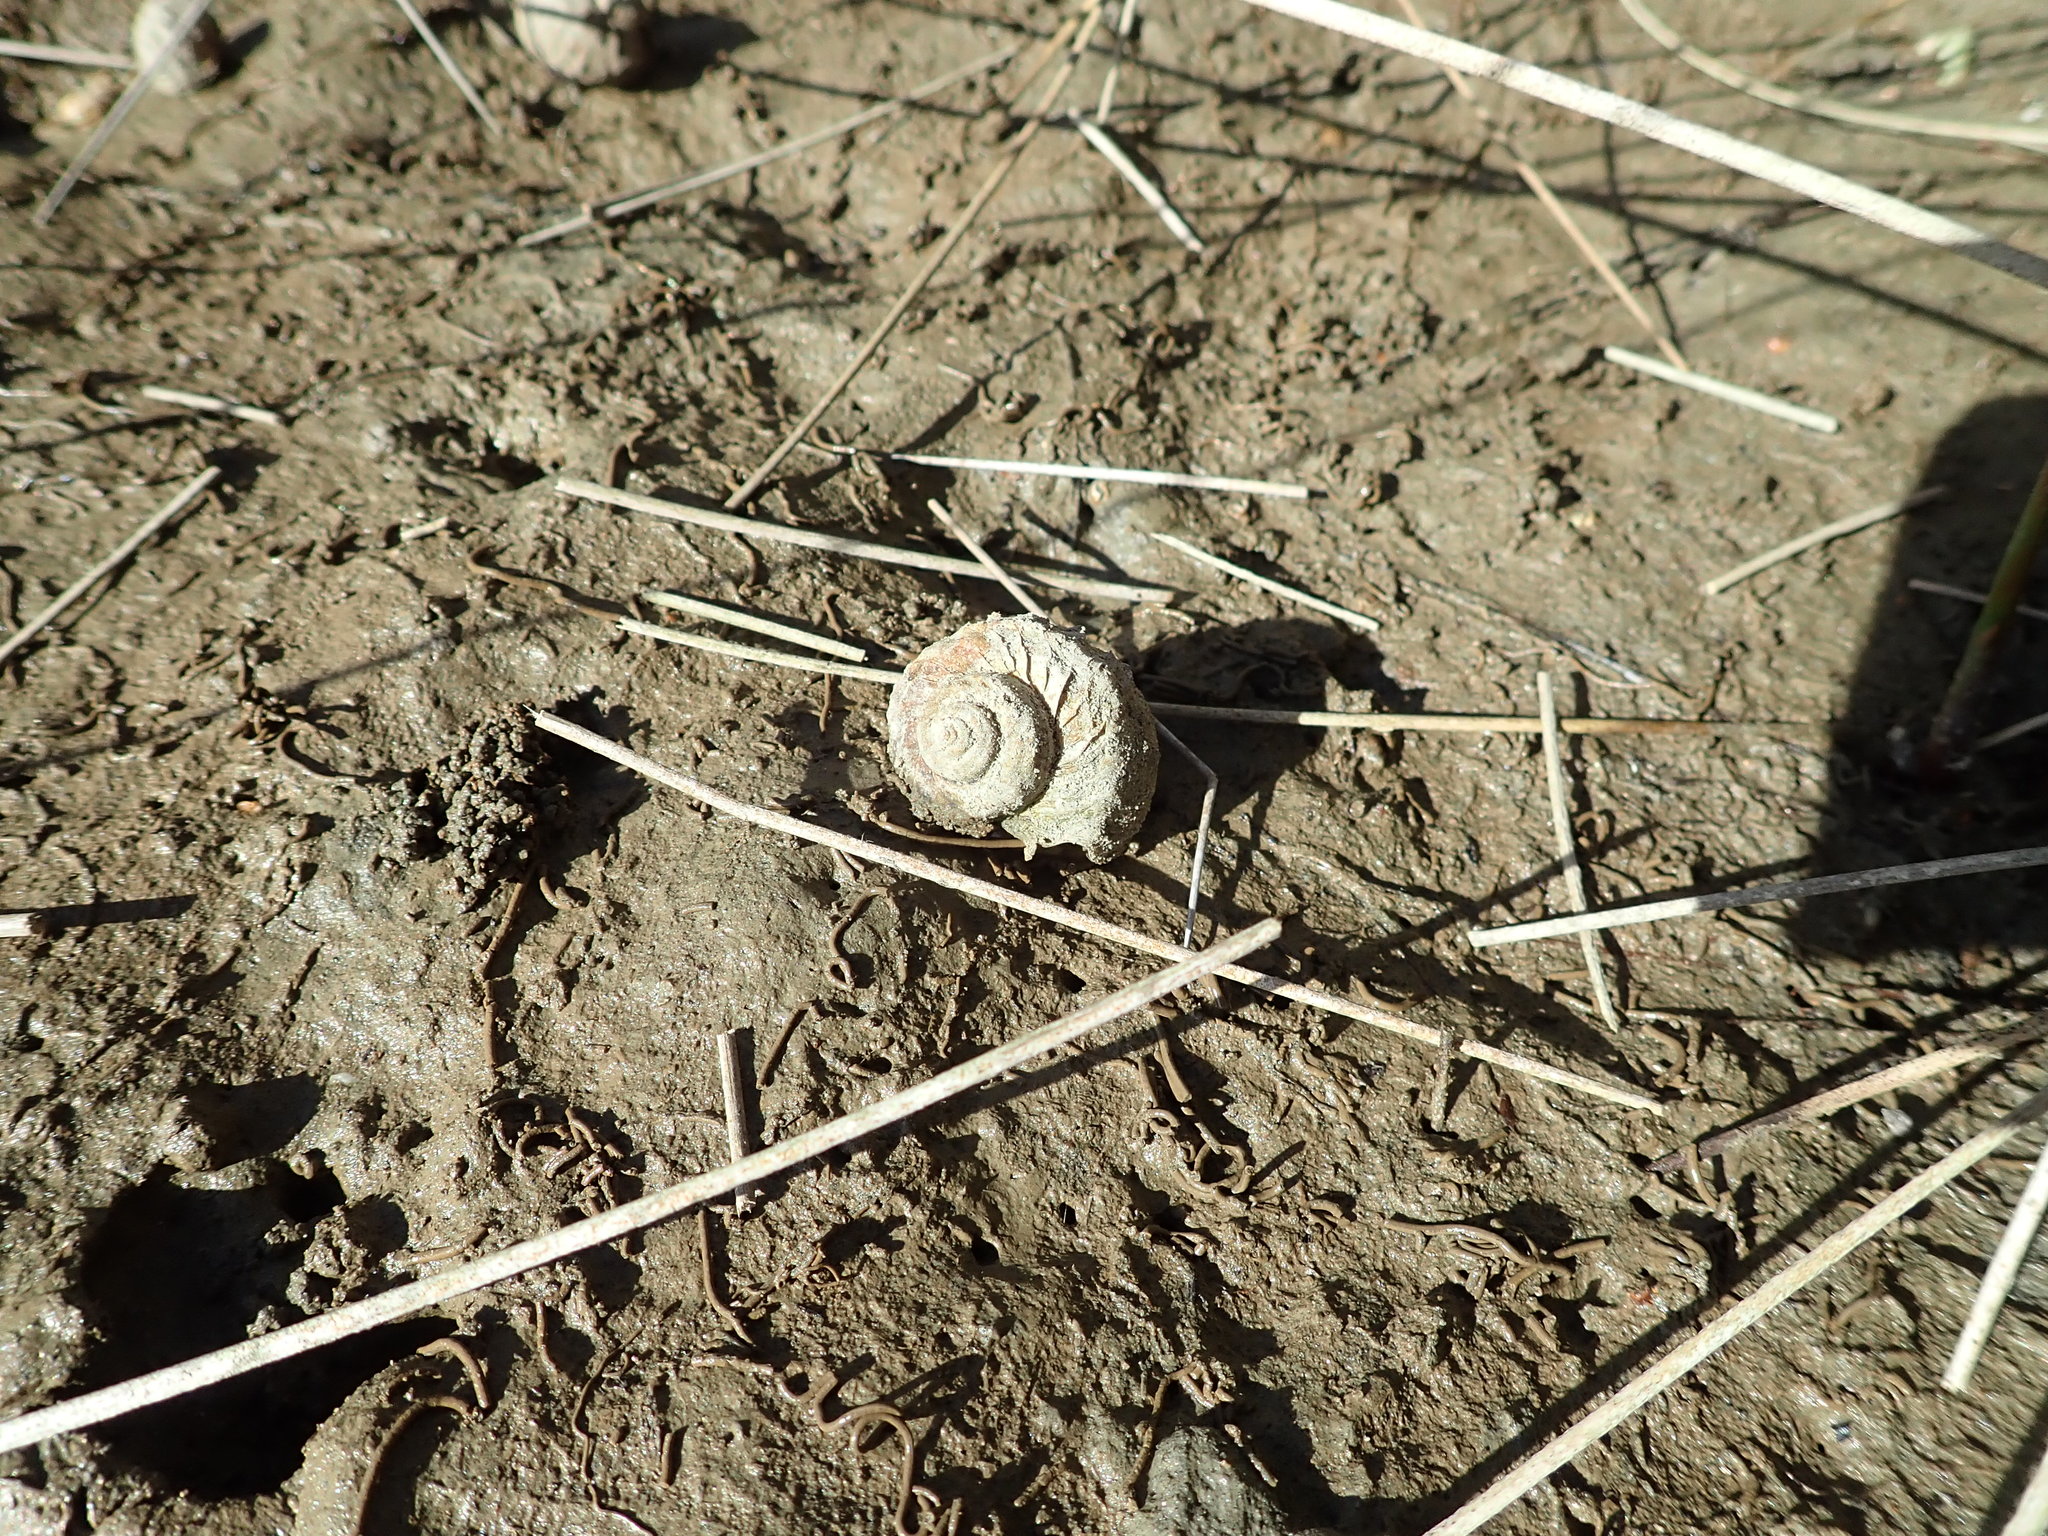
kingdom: Animalia
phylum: Mollusca
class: Gastropoda
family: Amphibolidae
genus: Amphibola
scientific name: Amphibola crenata
